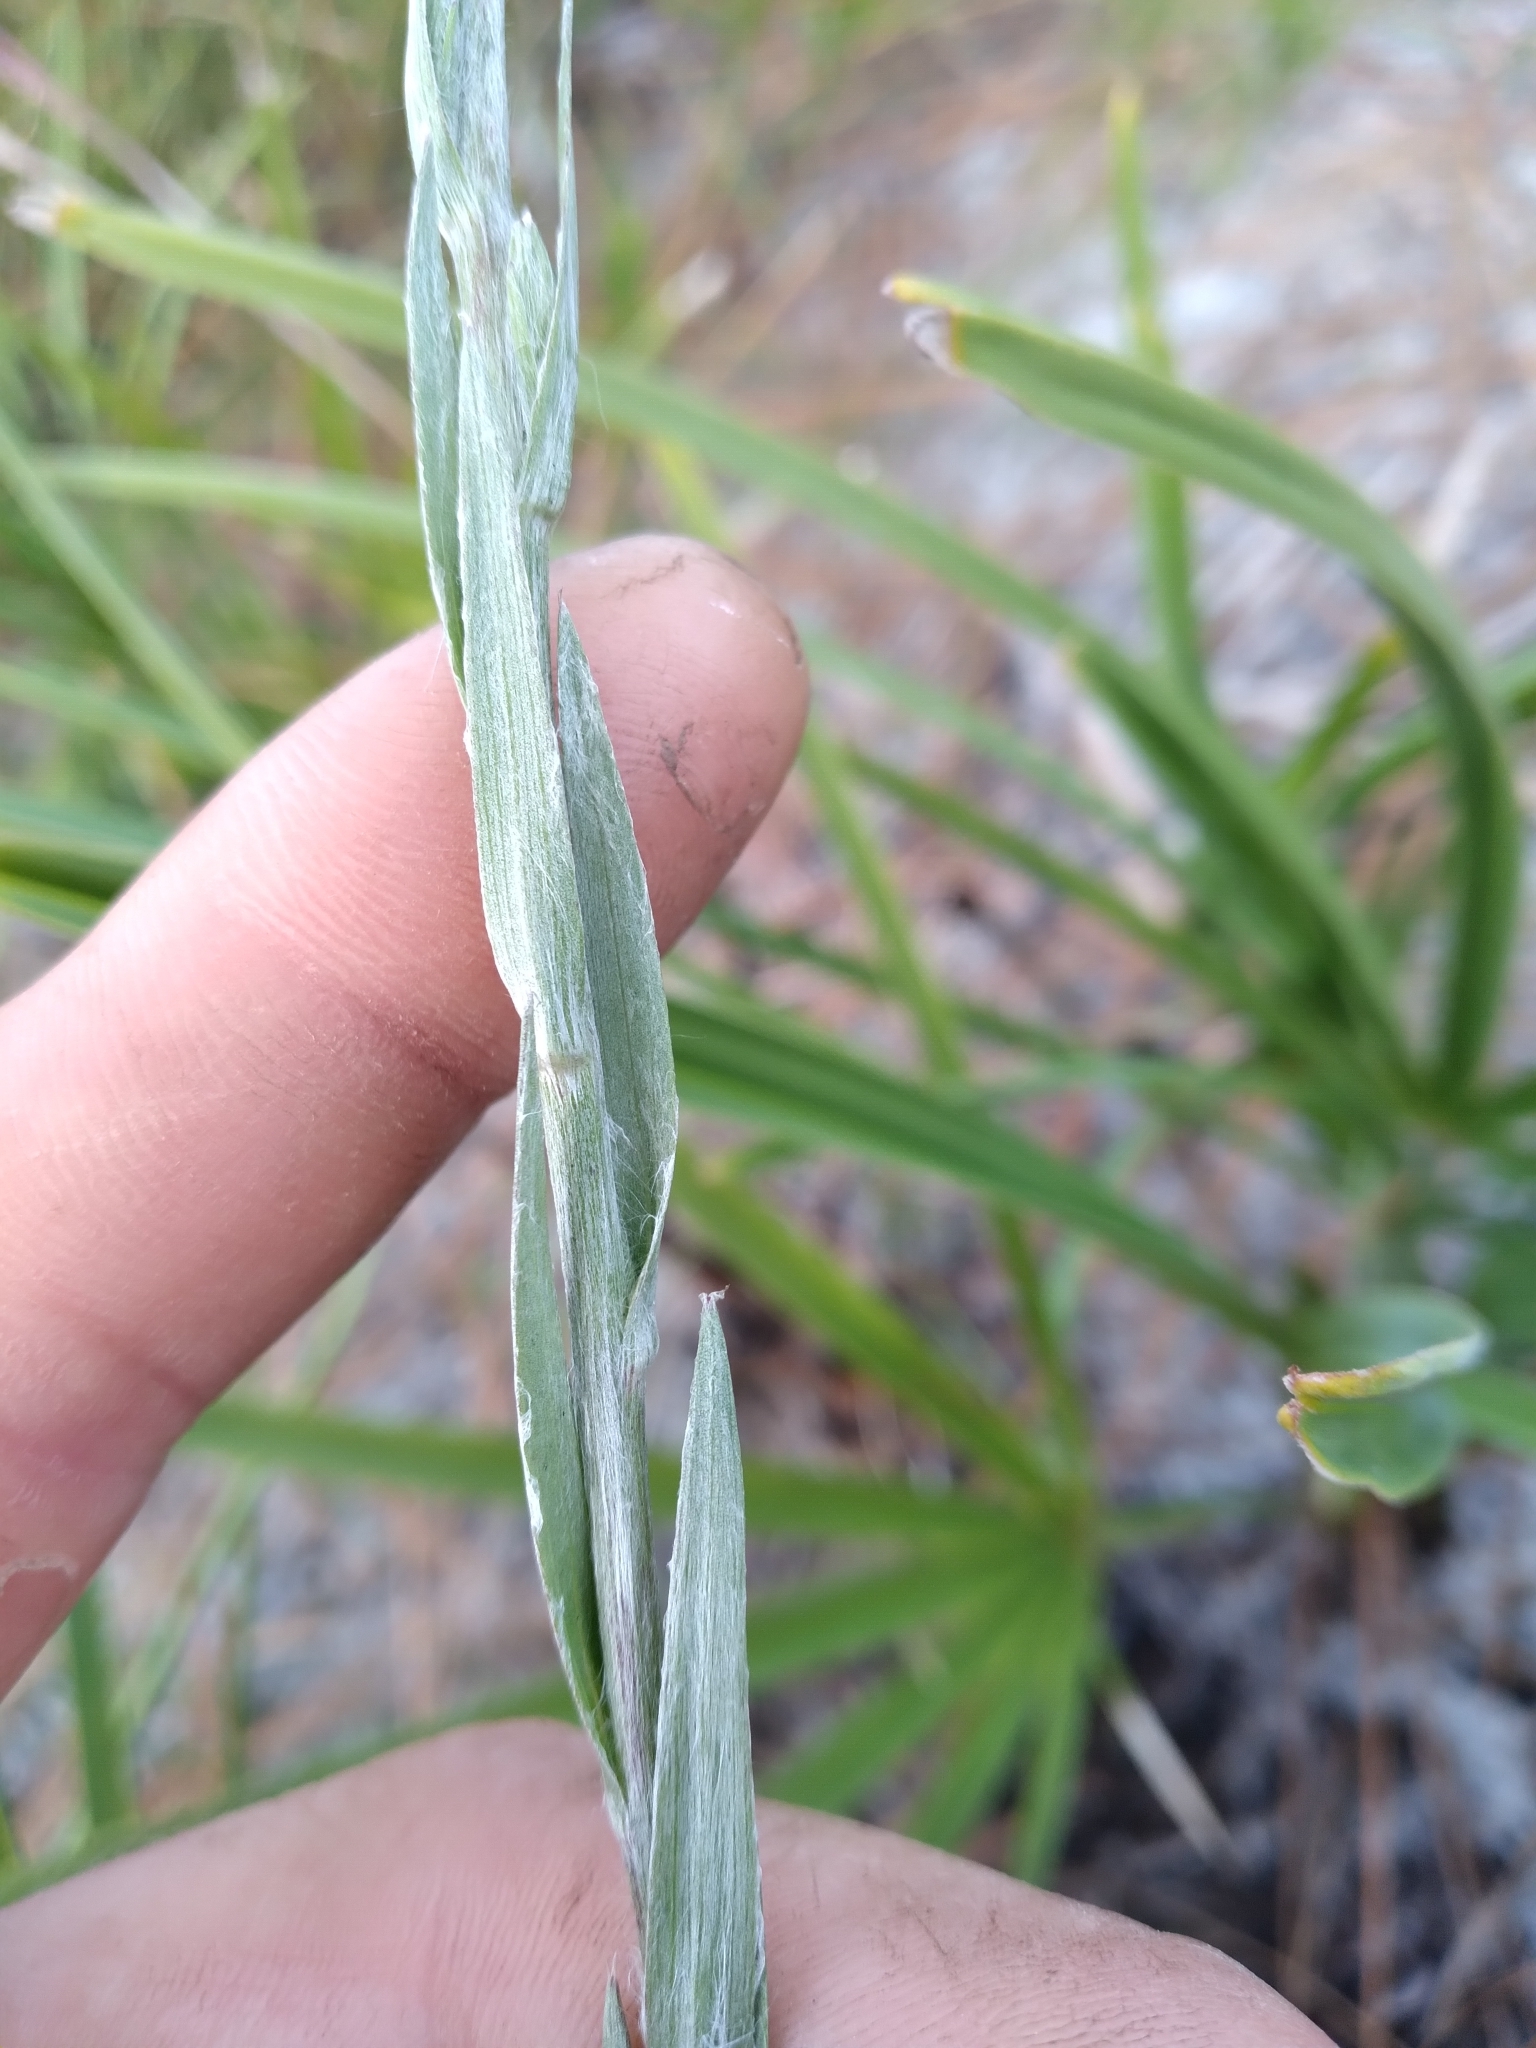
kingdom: Plantae
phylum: Tracheophyta
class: Magnoliopsida
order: Asterales
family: Asteraceae
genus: Pityopsis
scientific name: Pityopsis tracyi
